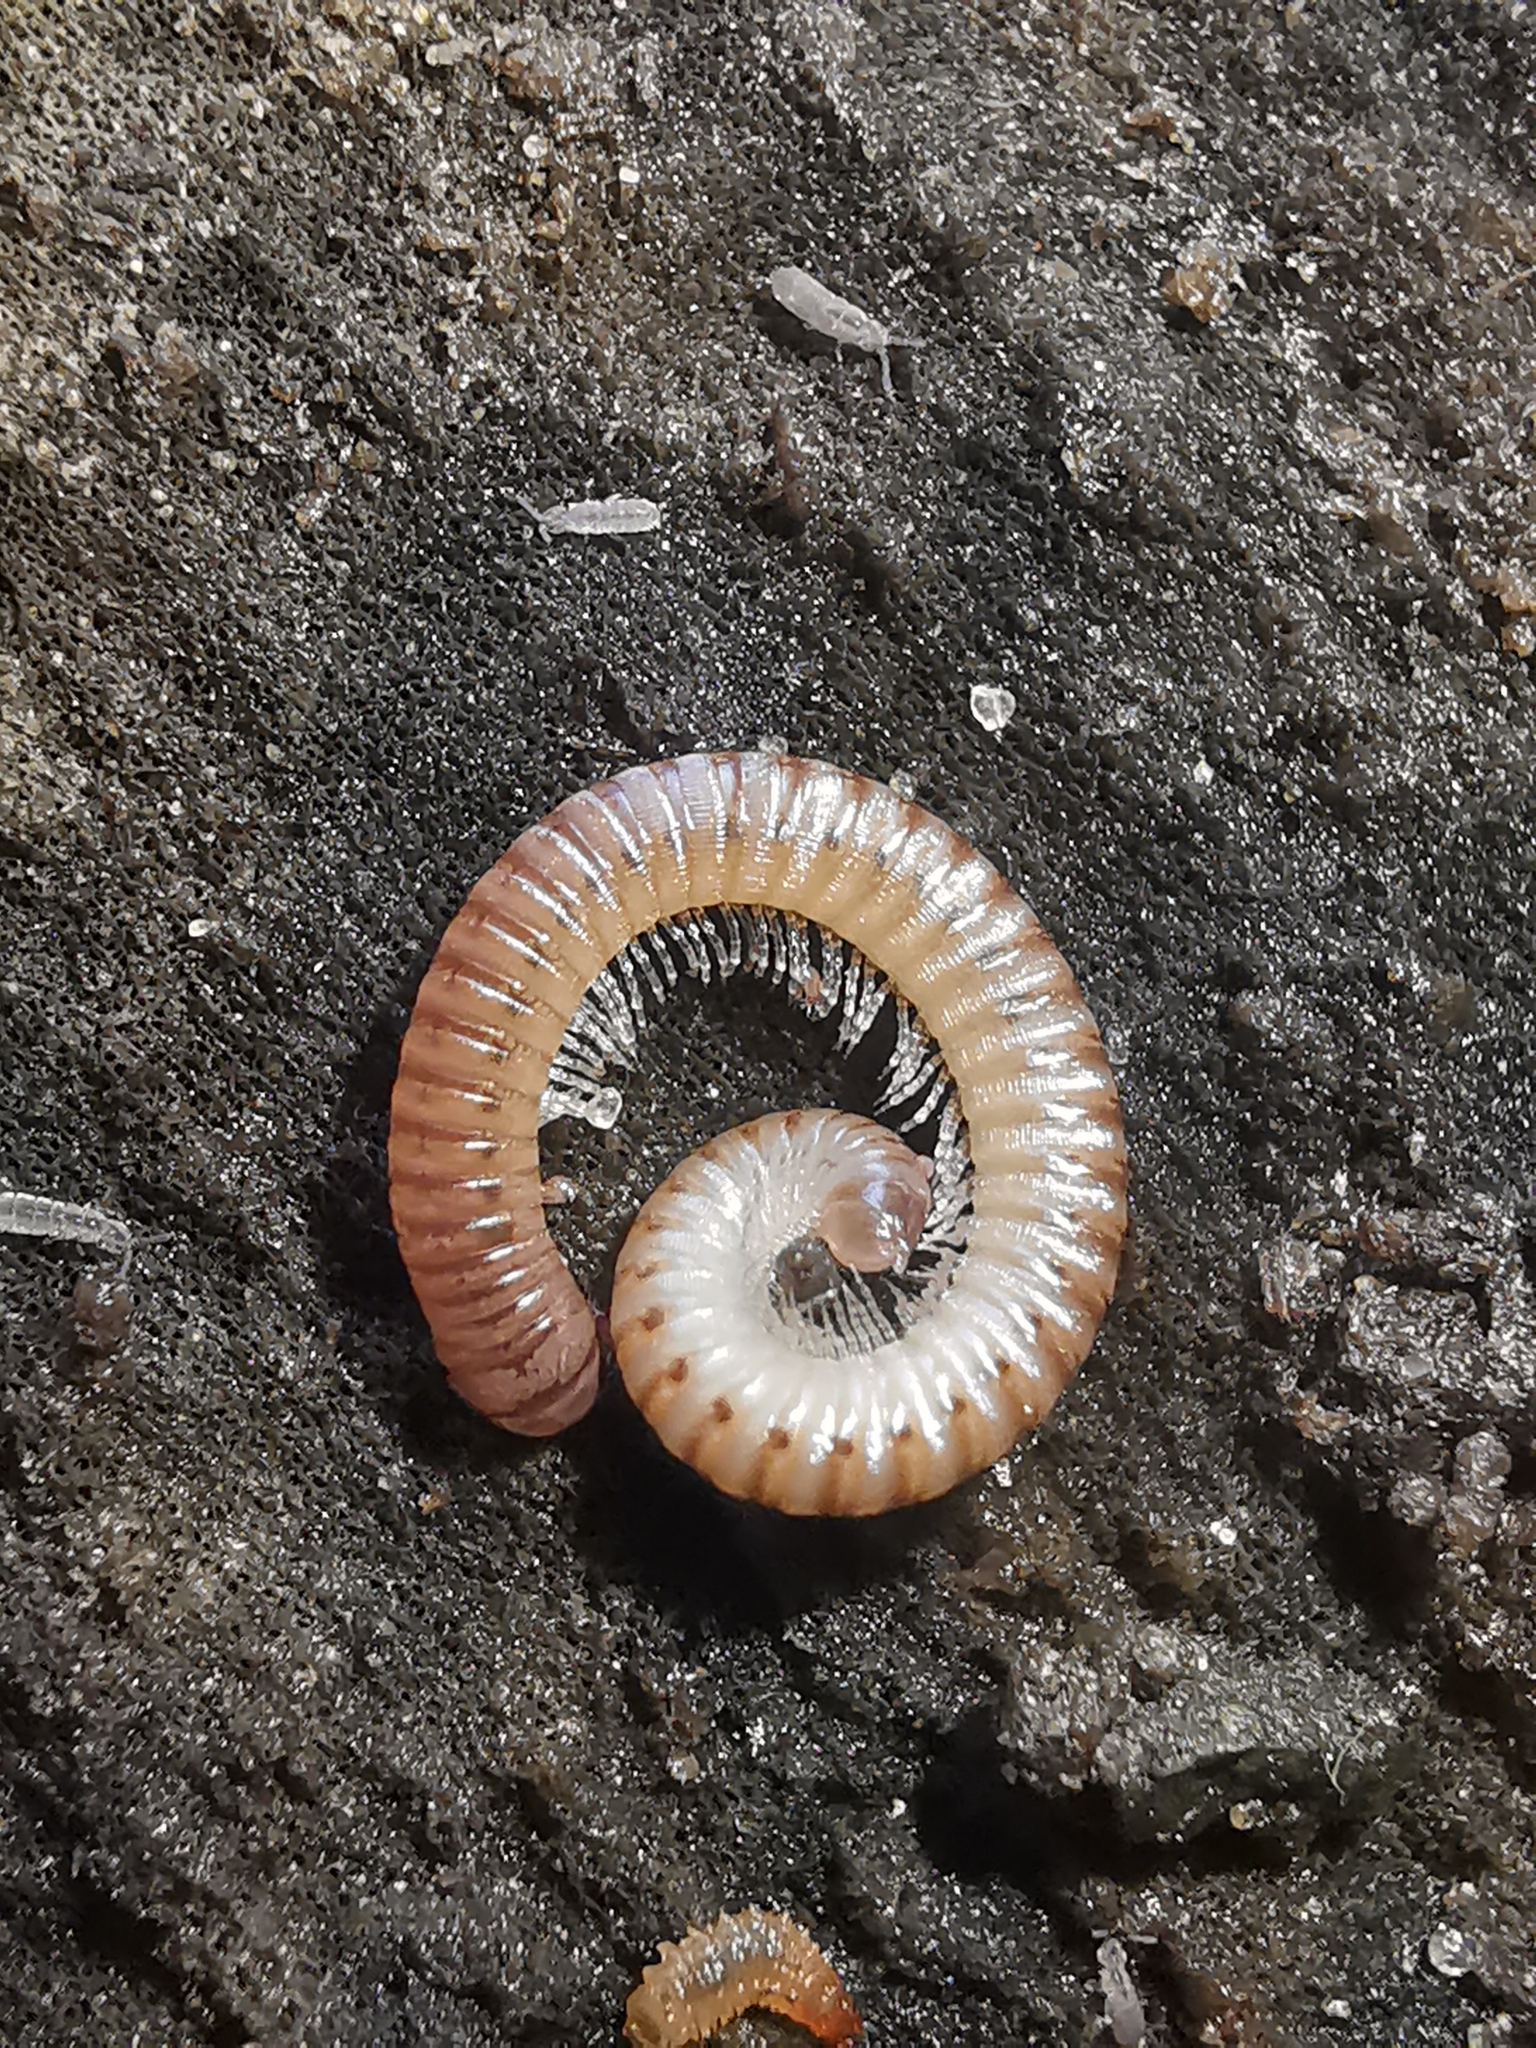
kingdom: Animalia
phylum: Arthropoda
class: Diplopoda
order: Julida
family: Julidae
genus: Cylindroiulus
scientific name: Cylindroiulus punctatus
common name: Blunt-tailed millipede
